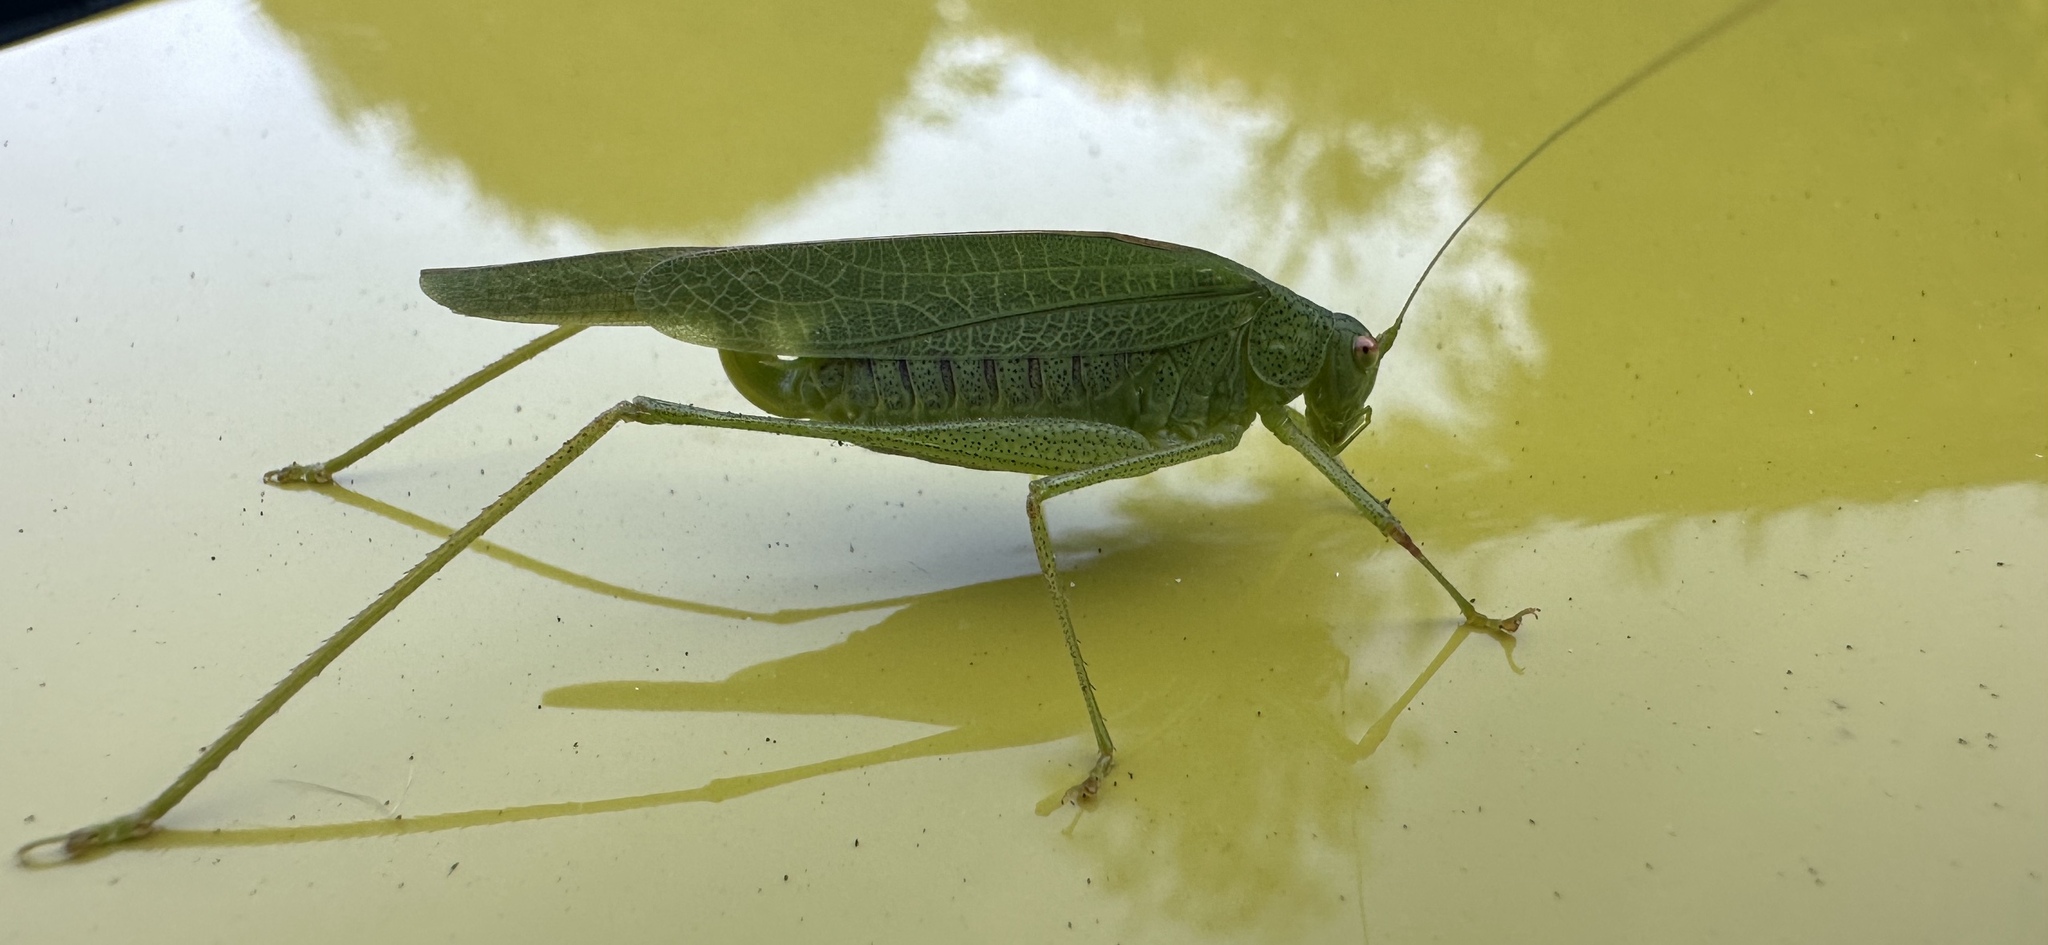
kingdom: Animalia
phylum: Arthropoda
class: Insecta
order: Orthoptera
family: Tettigoniidae
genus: Phaneroptera
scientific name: Phaneroptera nana
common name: Southern sickle bush-cricket
